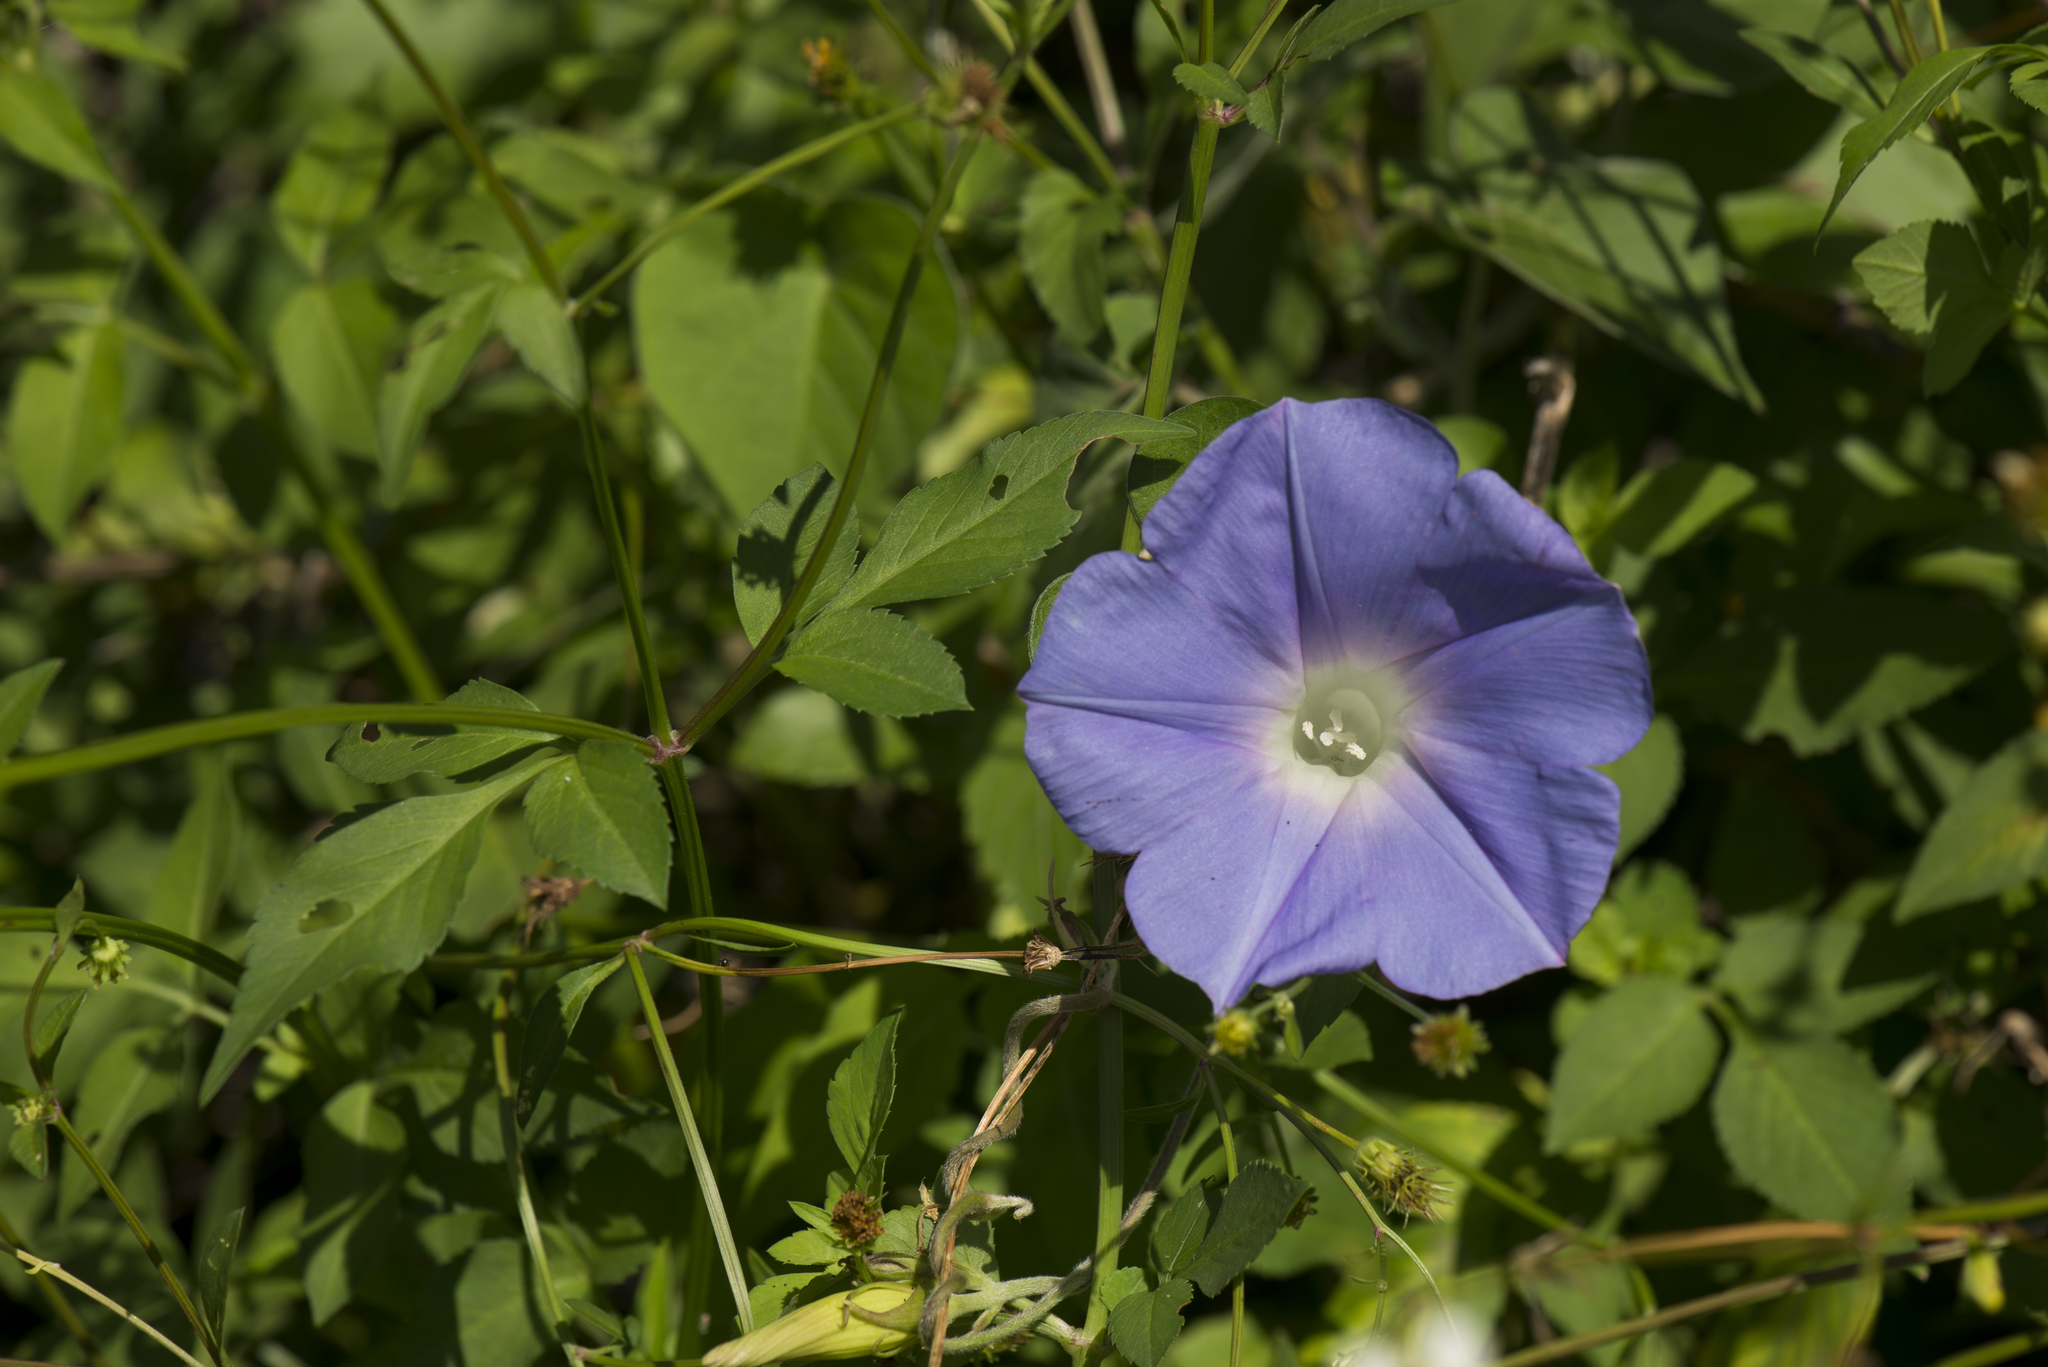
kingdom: Plantae
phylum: Tracheophyta
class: Magnoliopsida
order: Solanales
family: Convolvulaceae
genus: Ipomoea
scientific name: Ipomoea indica
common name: Blue dawnflower
